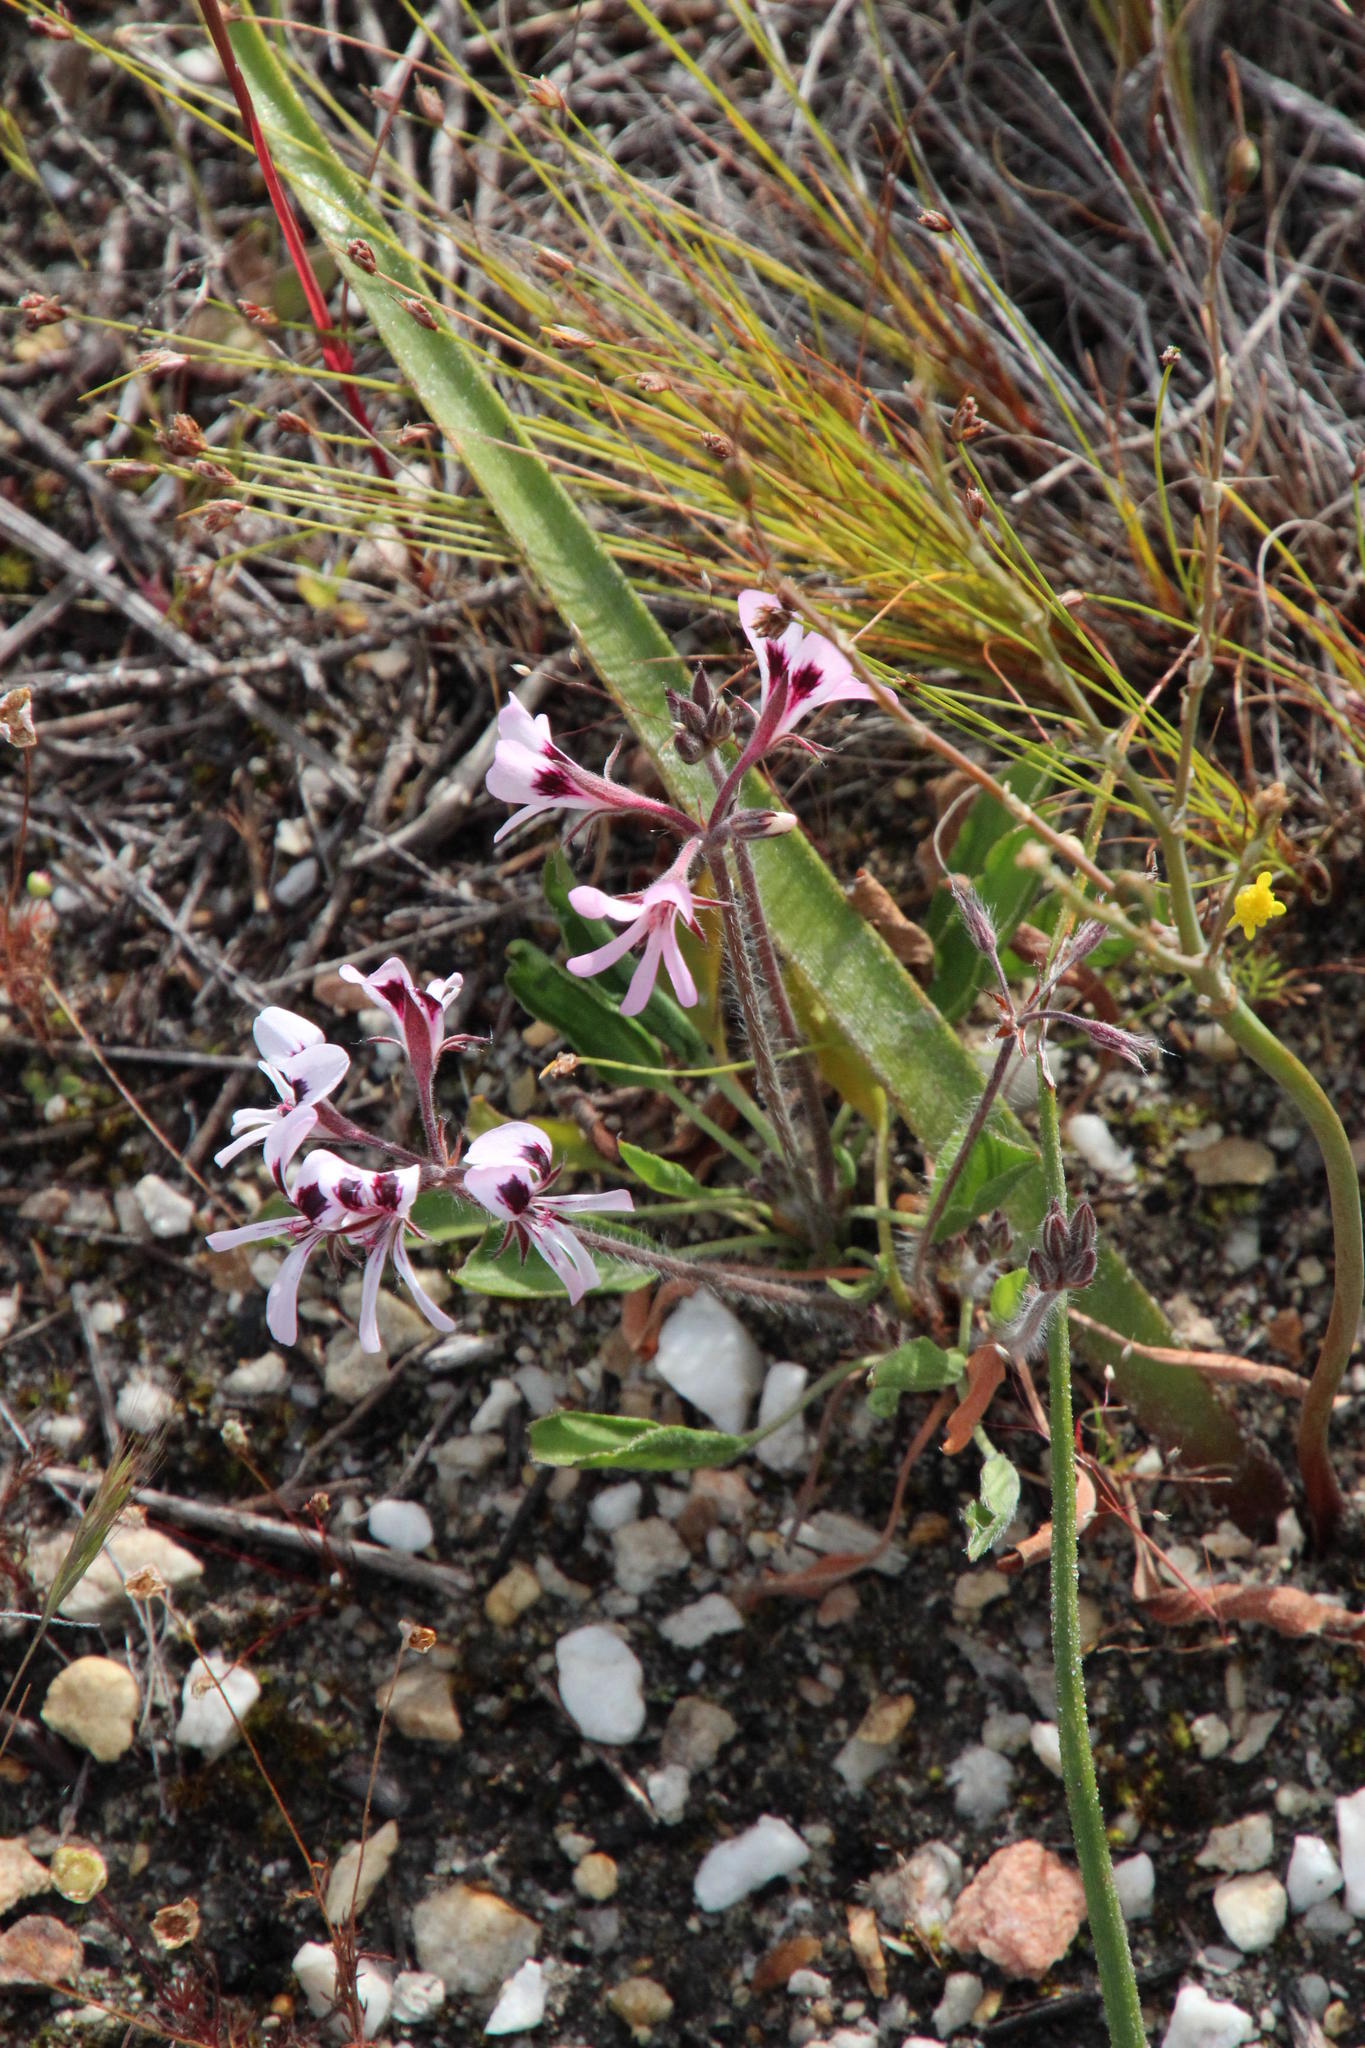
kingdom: Plantae
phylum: Tracheophyta
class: Magnoliopsida
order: Geraniales
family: Geraniaceae
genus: Pelargonium
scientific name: Pelargonium psammophilum
